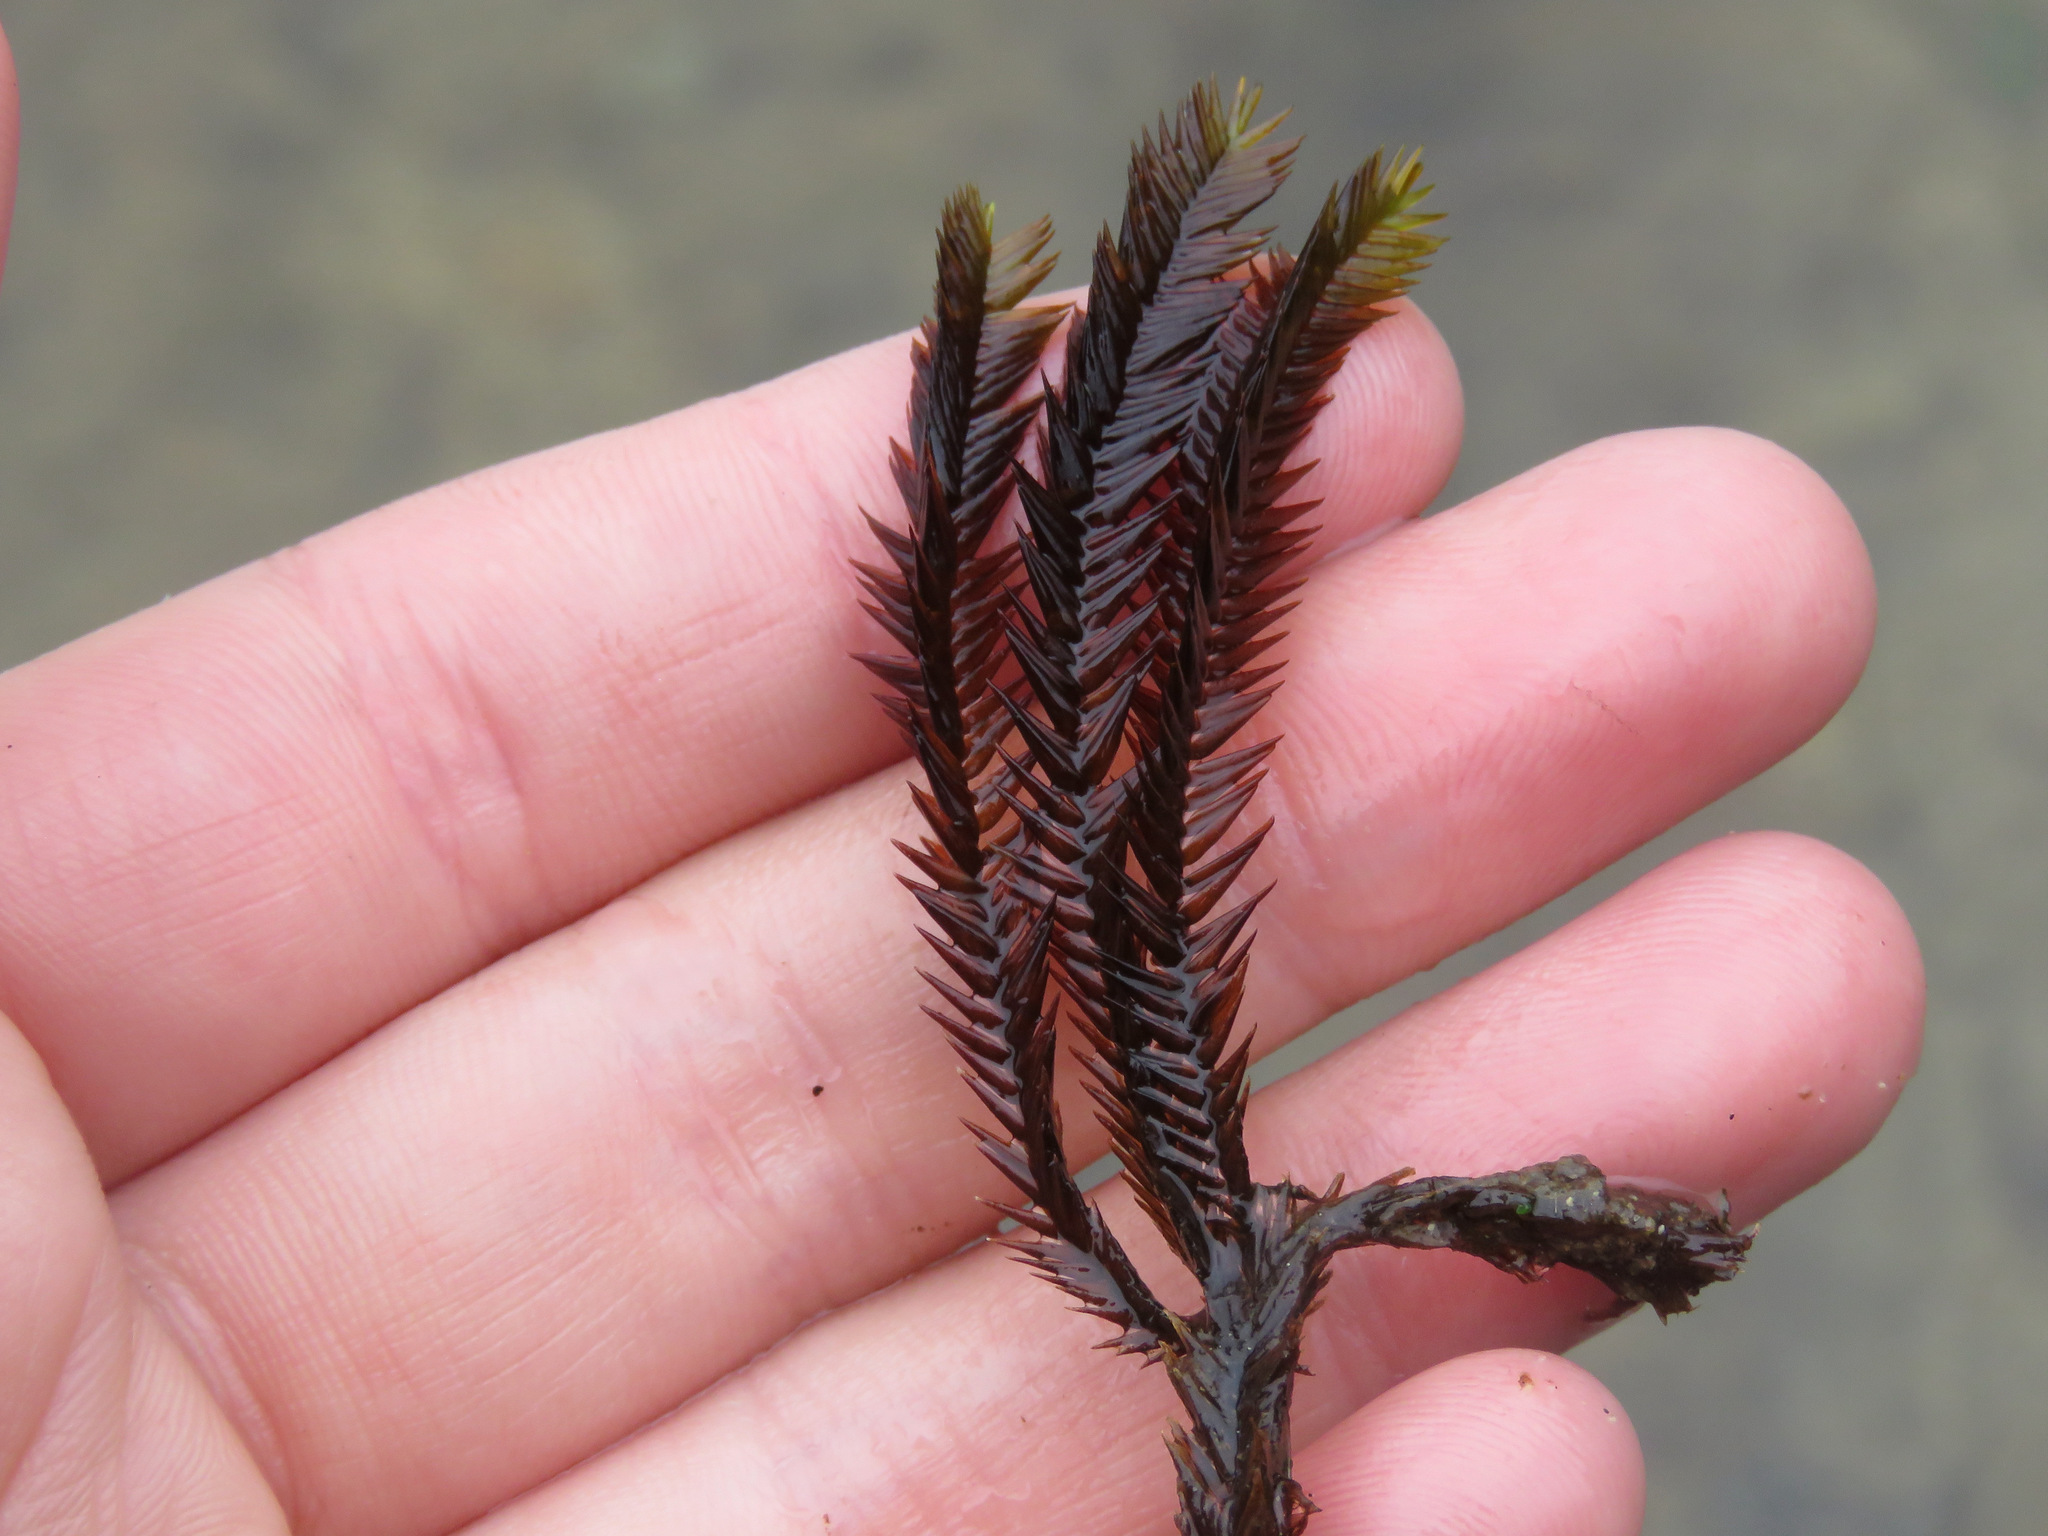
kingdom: Plantae
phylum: Bryophyta
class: Bryopsida
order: Hypnales
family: Fontinalaceae
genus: Fontinalis
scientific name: Fontinalis antipyretica
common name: Greater water-moss
